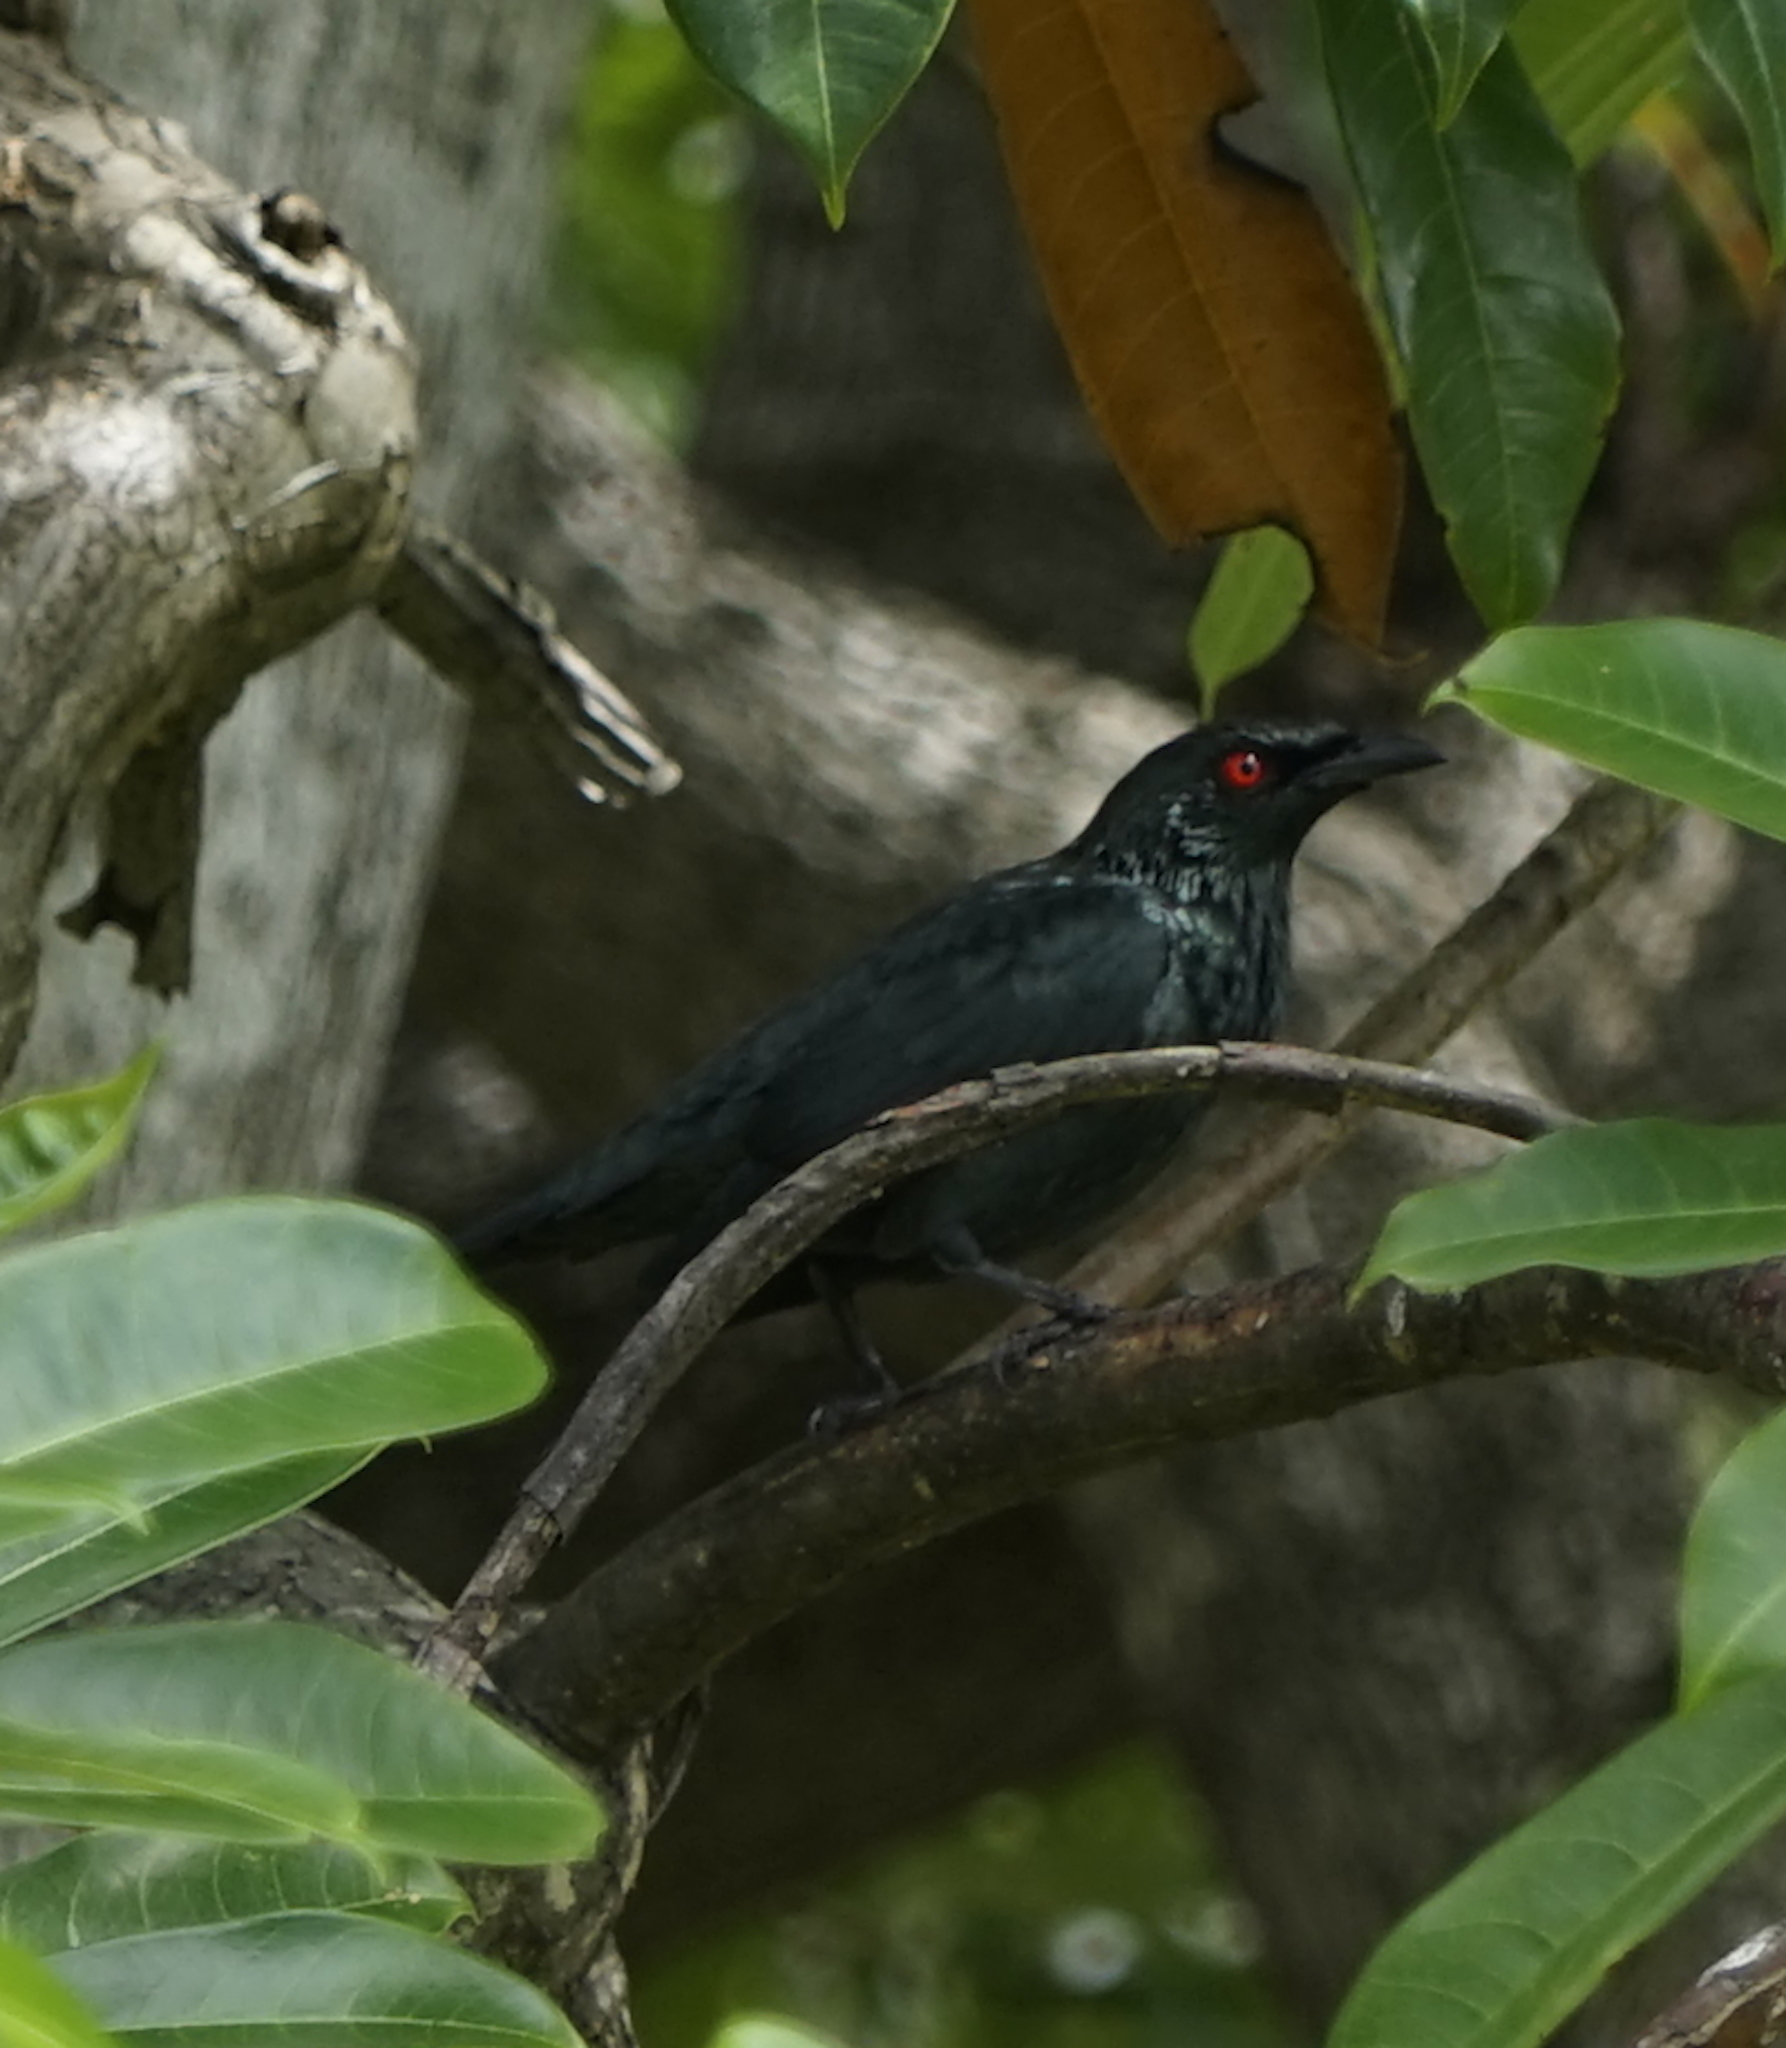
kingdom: Animalia
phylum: Chordata
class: Aves
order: Passeriformes
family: Sturnidae
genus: Aplonis
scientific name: Aplonis panayensis
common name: Asian glossy starling
